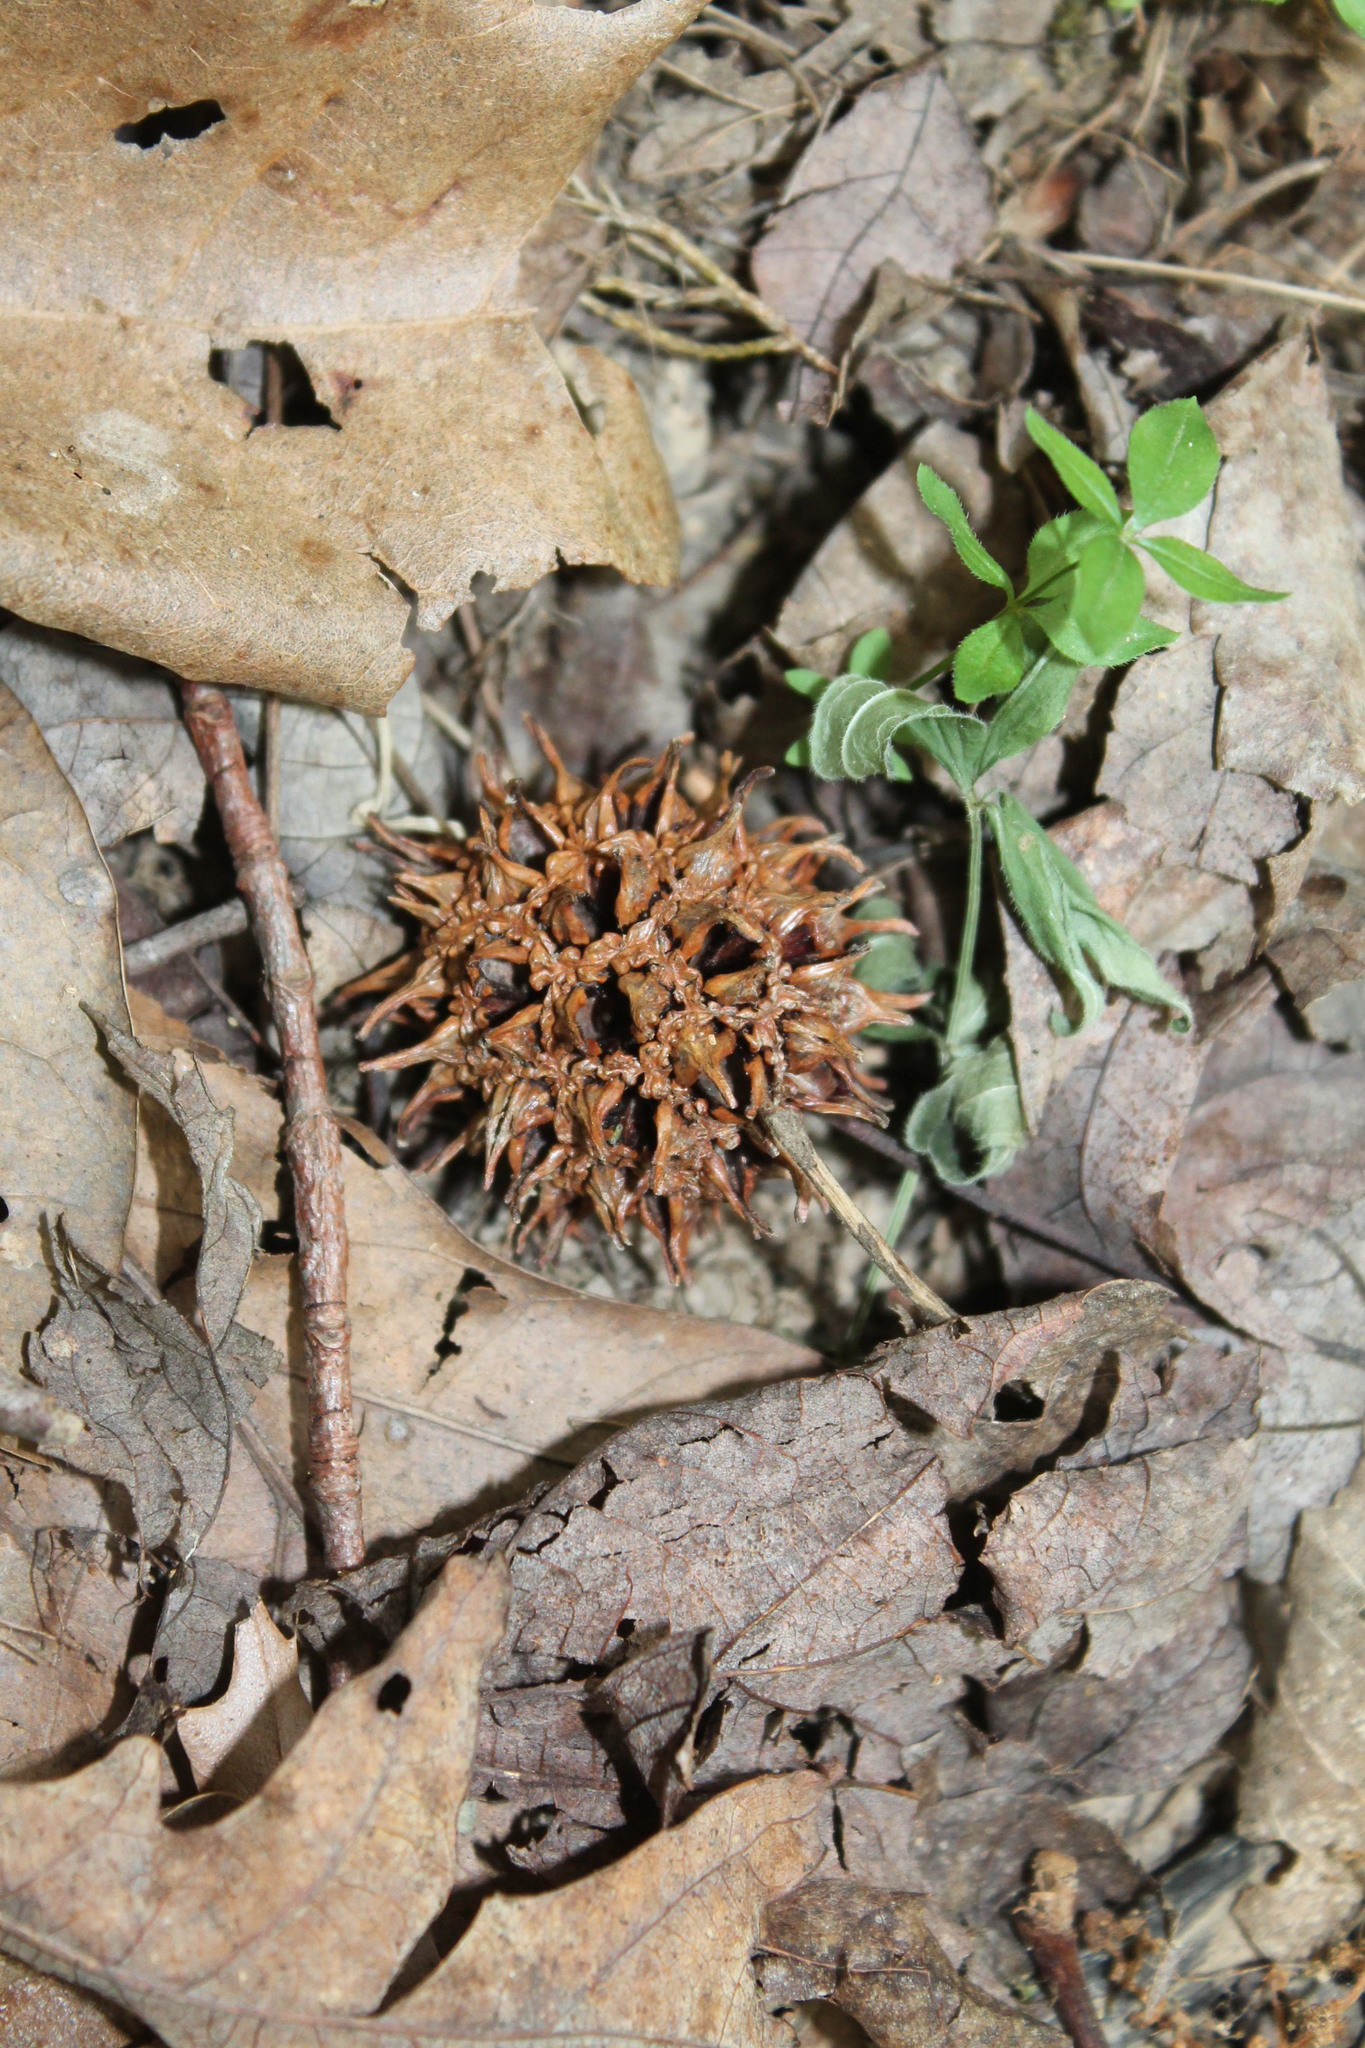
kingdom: Plantae
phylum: Tracheophyta
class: Magnoliopsida
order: Saxifragales
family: Altingiaceae
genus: Liquidambar
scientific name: Liquidambar styraciflua
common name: Sweet gum
